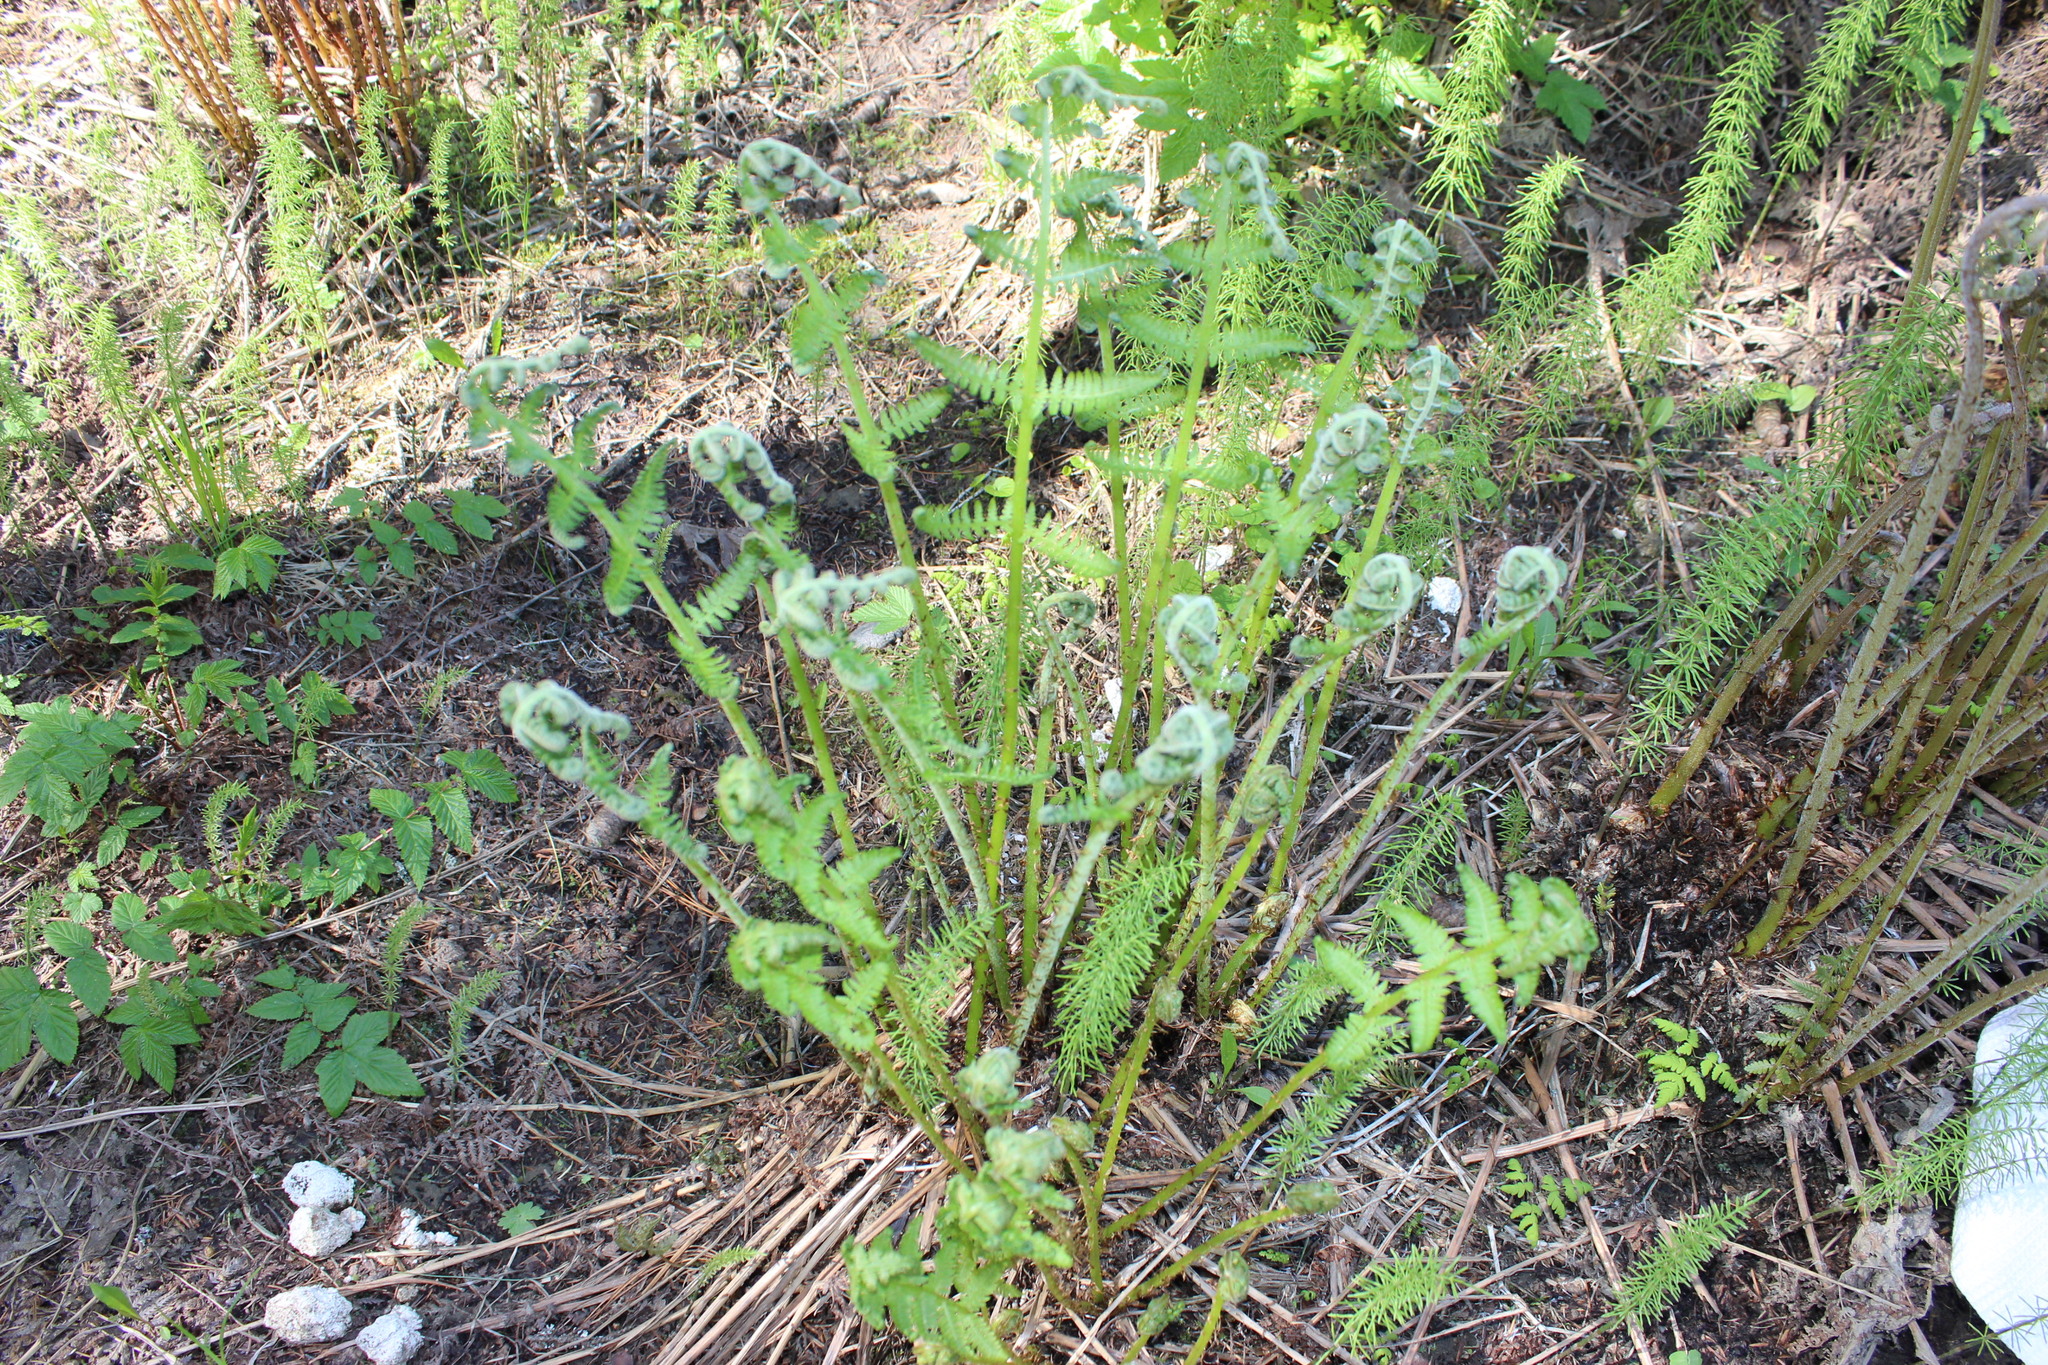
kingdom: Plantae
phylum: Tracheophyta
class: Polypodiopsida
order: Polypodiales
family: Athyriaceae
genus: Athyrium
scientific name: Athyrium filix-femina
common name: Lady fern
